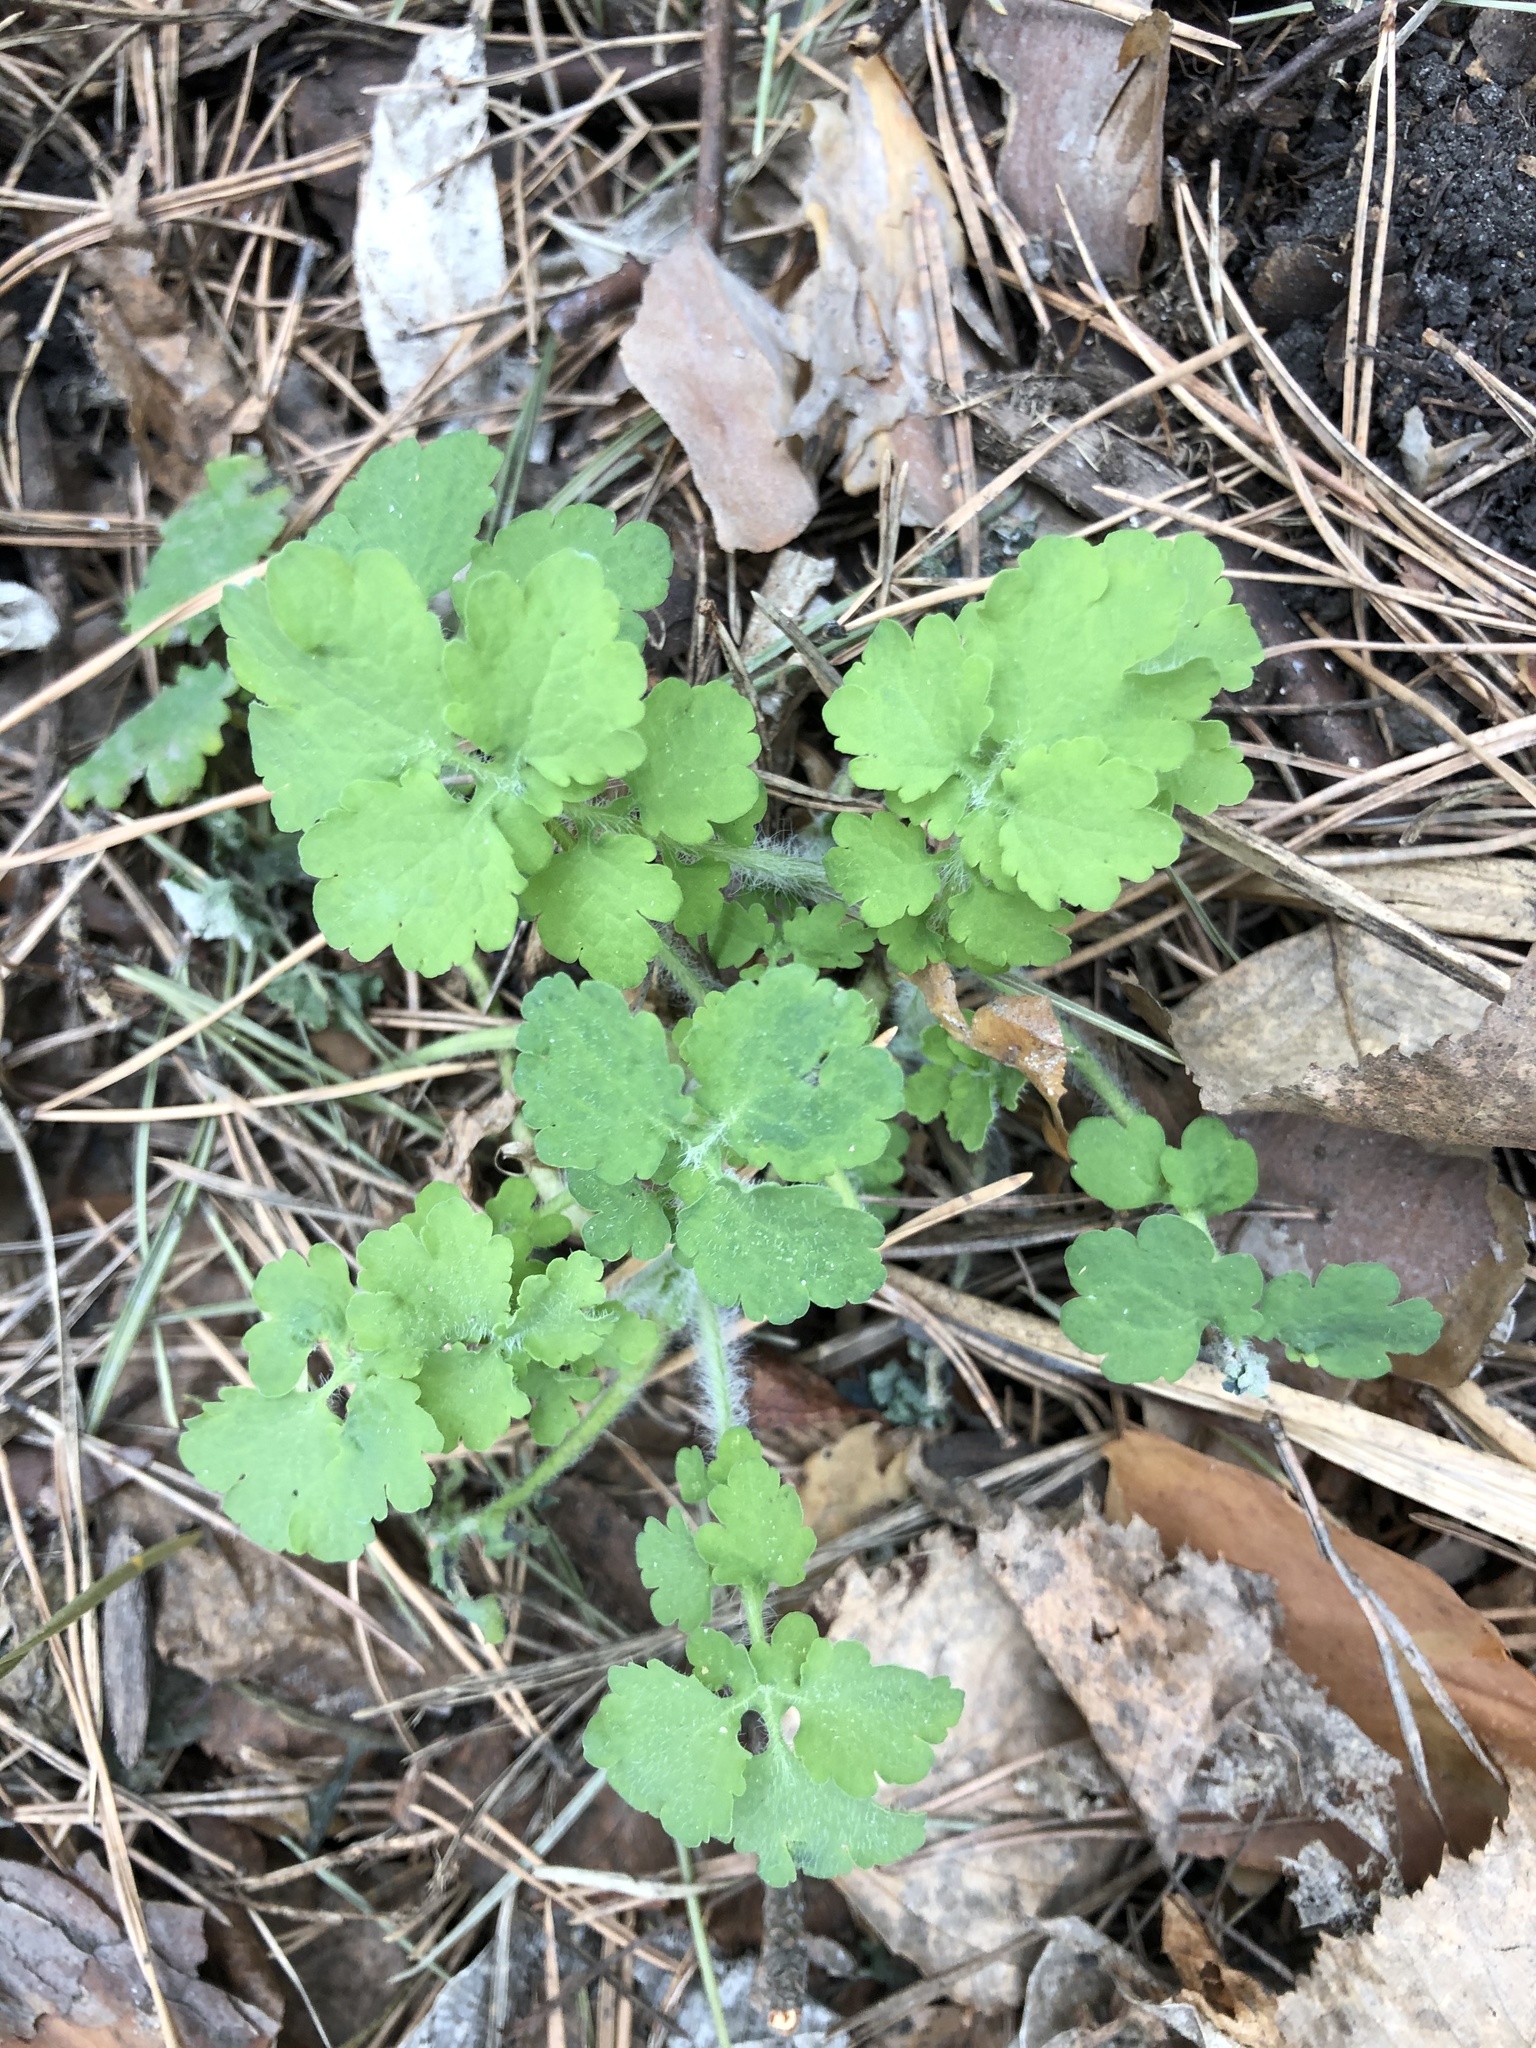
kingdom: Plantae
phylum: Tracheophyta
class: Magnoliopsida
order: Ranunculales
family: Papaveraceae
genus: Chelidonium
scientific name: Chelidonium majus
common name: Greater celandine
